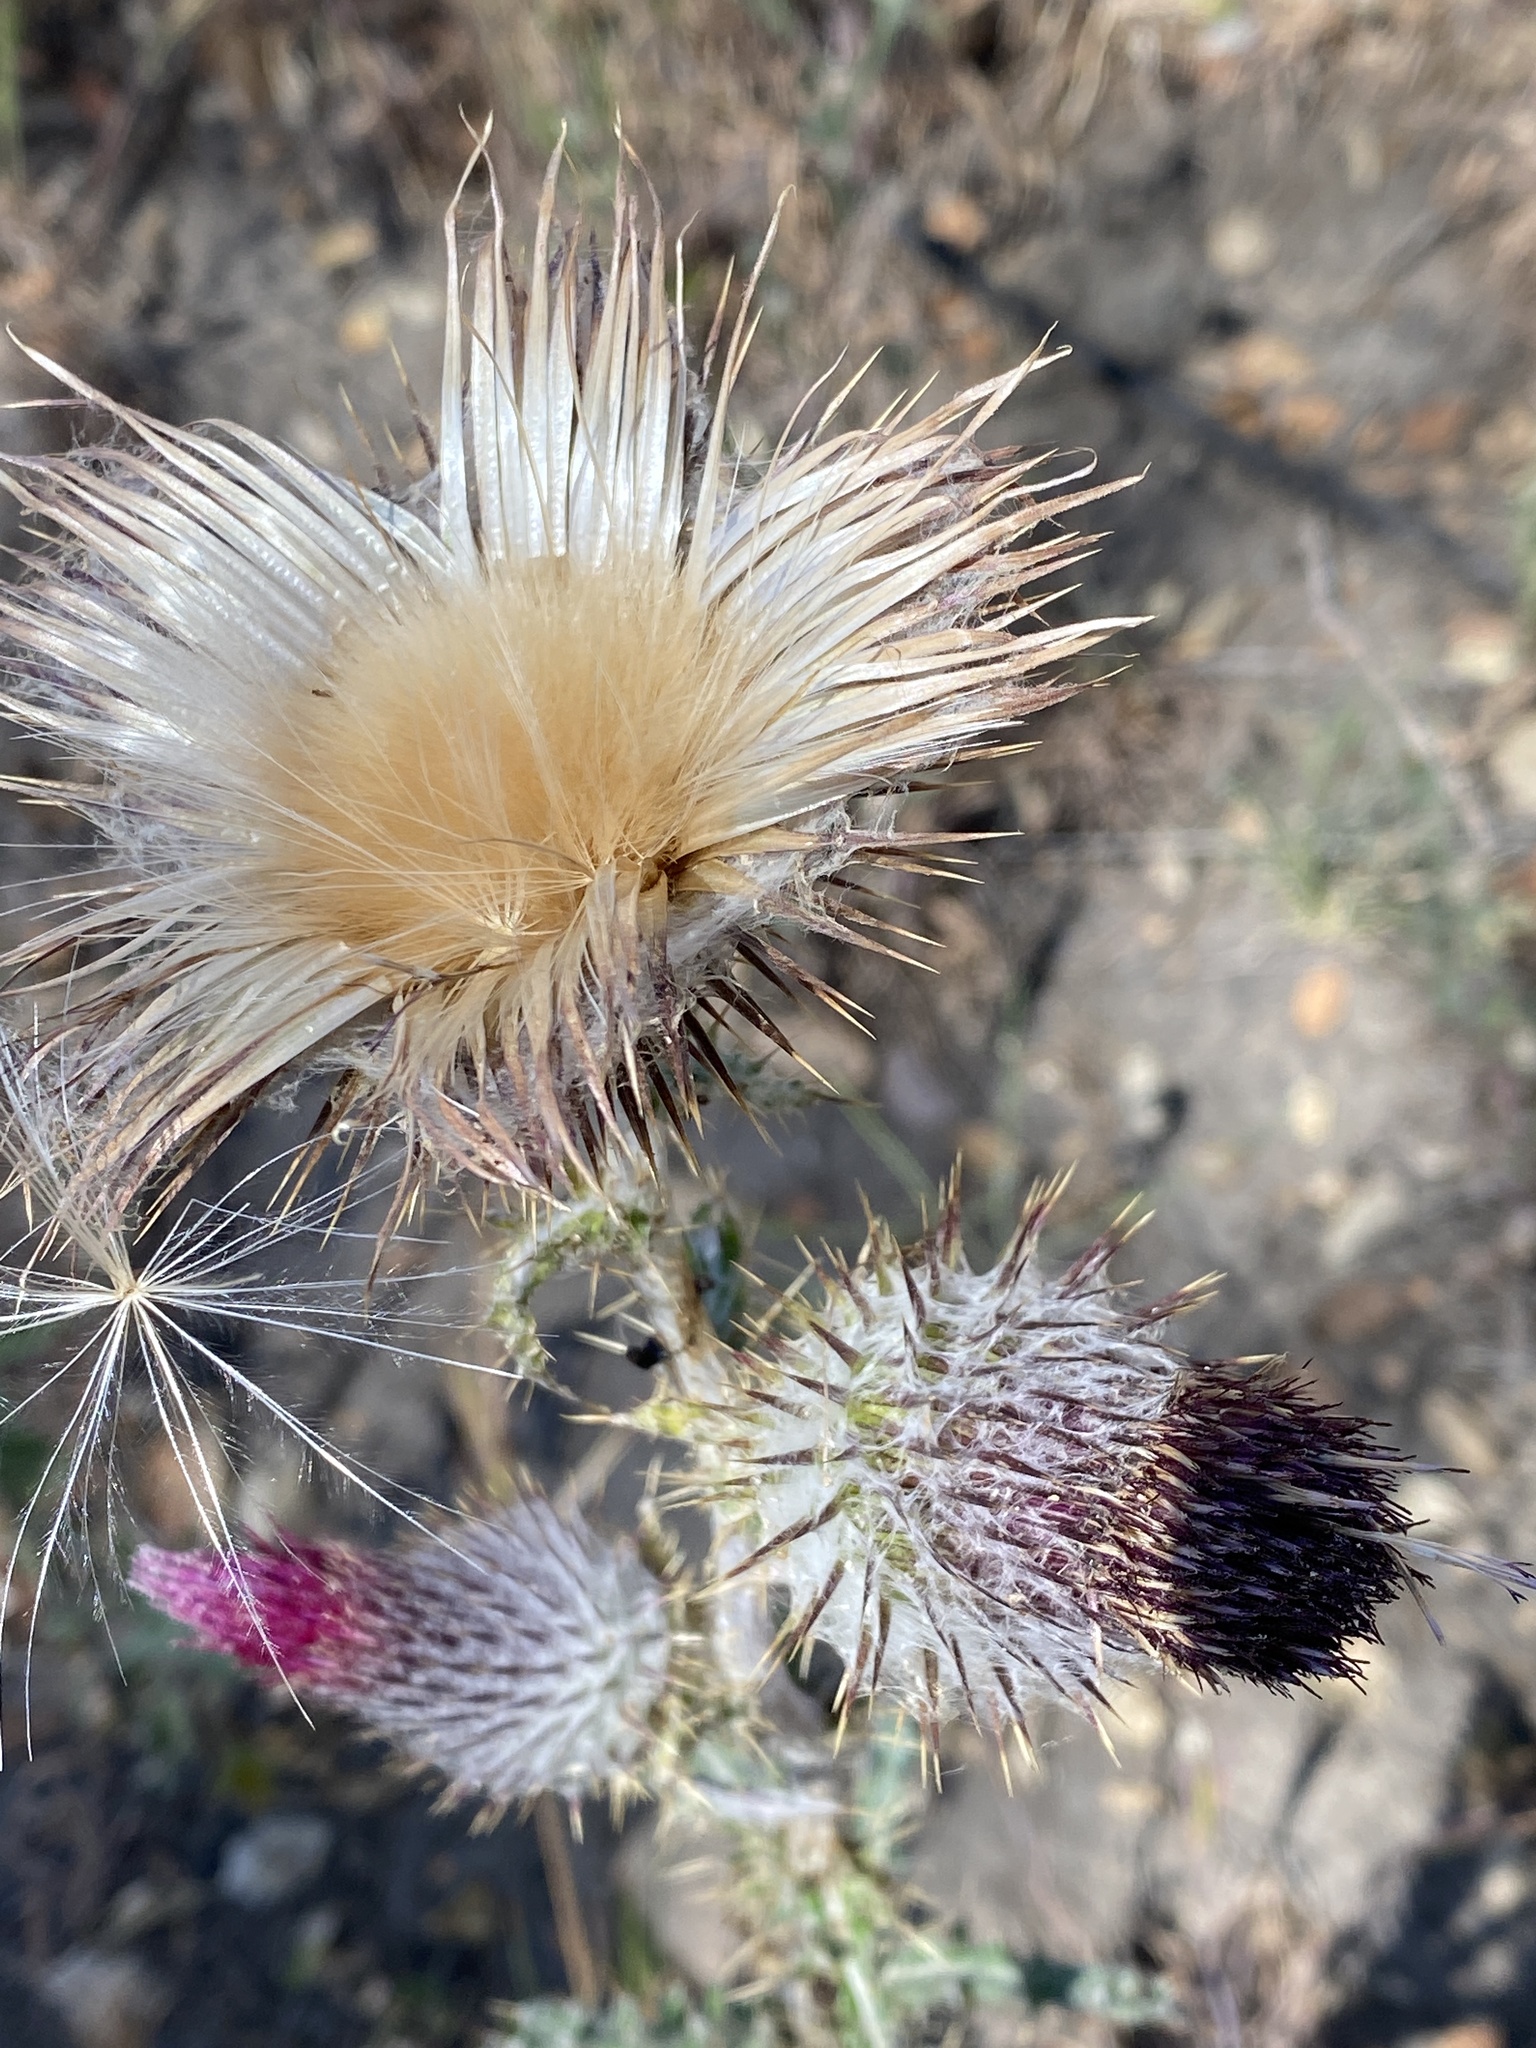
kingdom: Plantae
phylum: Tracheophyta
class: Magnoliopsida
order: Asterales
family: Asteraceae
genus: Cirsium
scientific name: Cirsium occidentale
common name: Western thistle
